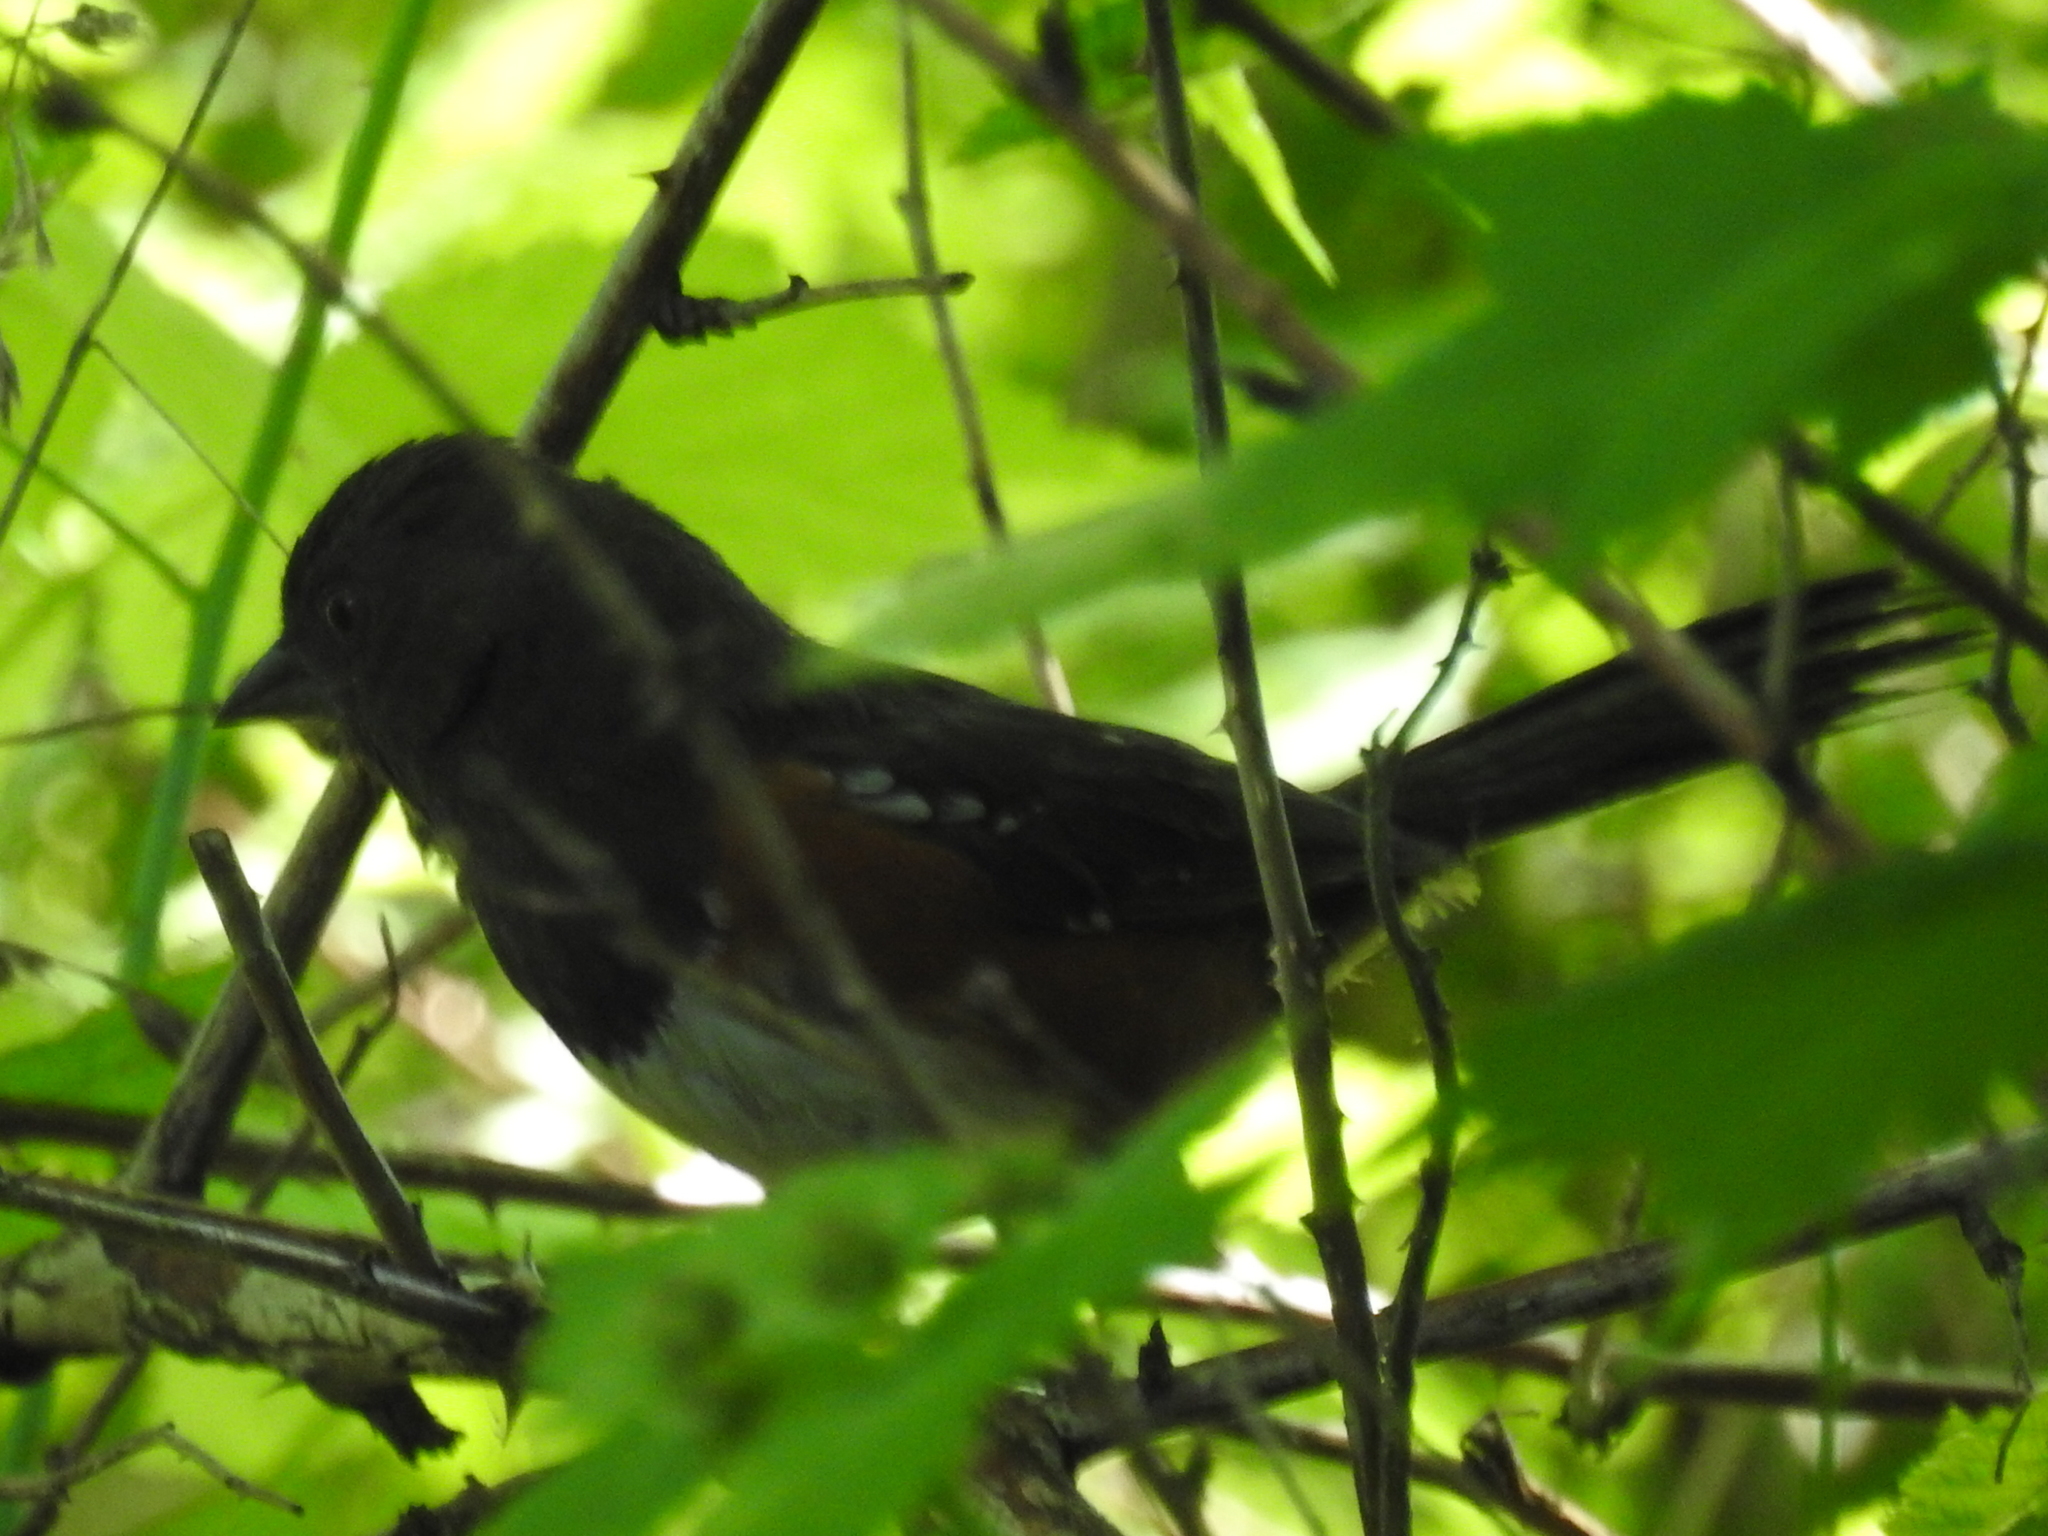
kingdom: Animalia
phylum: Chordata
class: Aves
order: Passeriformes
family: Passerellidae
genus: Pipilo
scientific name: Pipilo maculatus
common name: Spotted towhee
